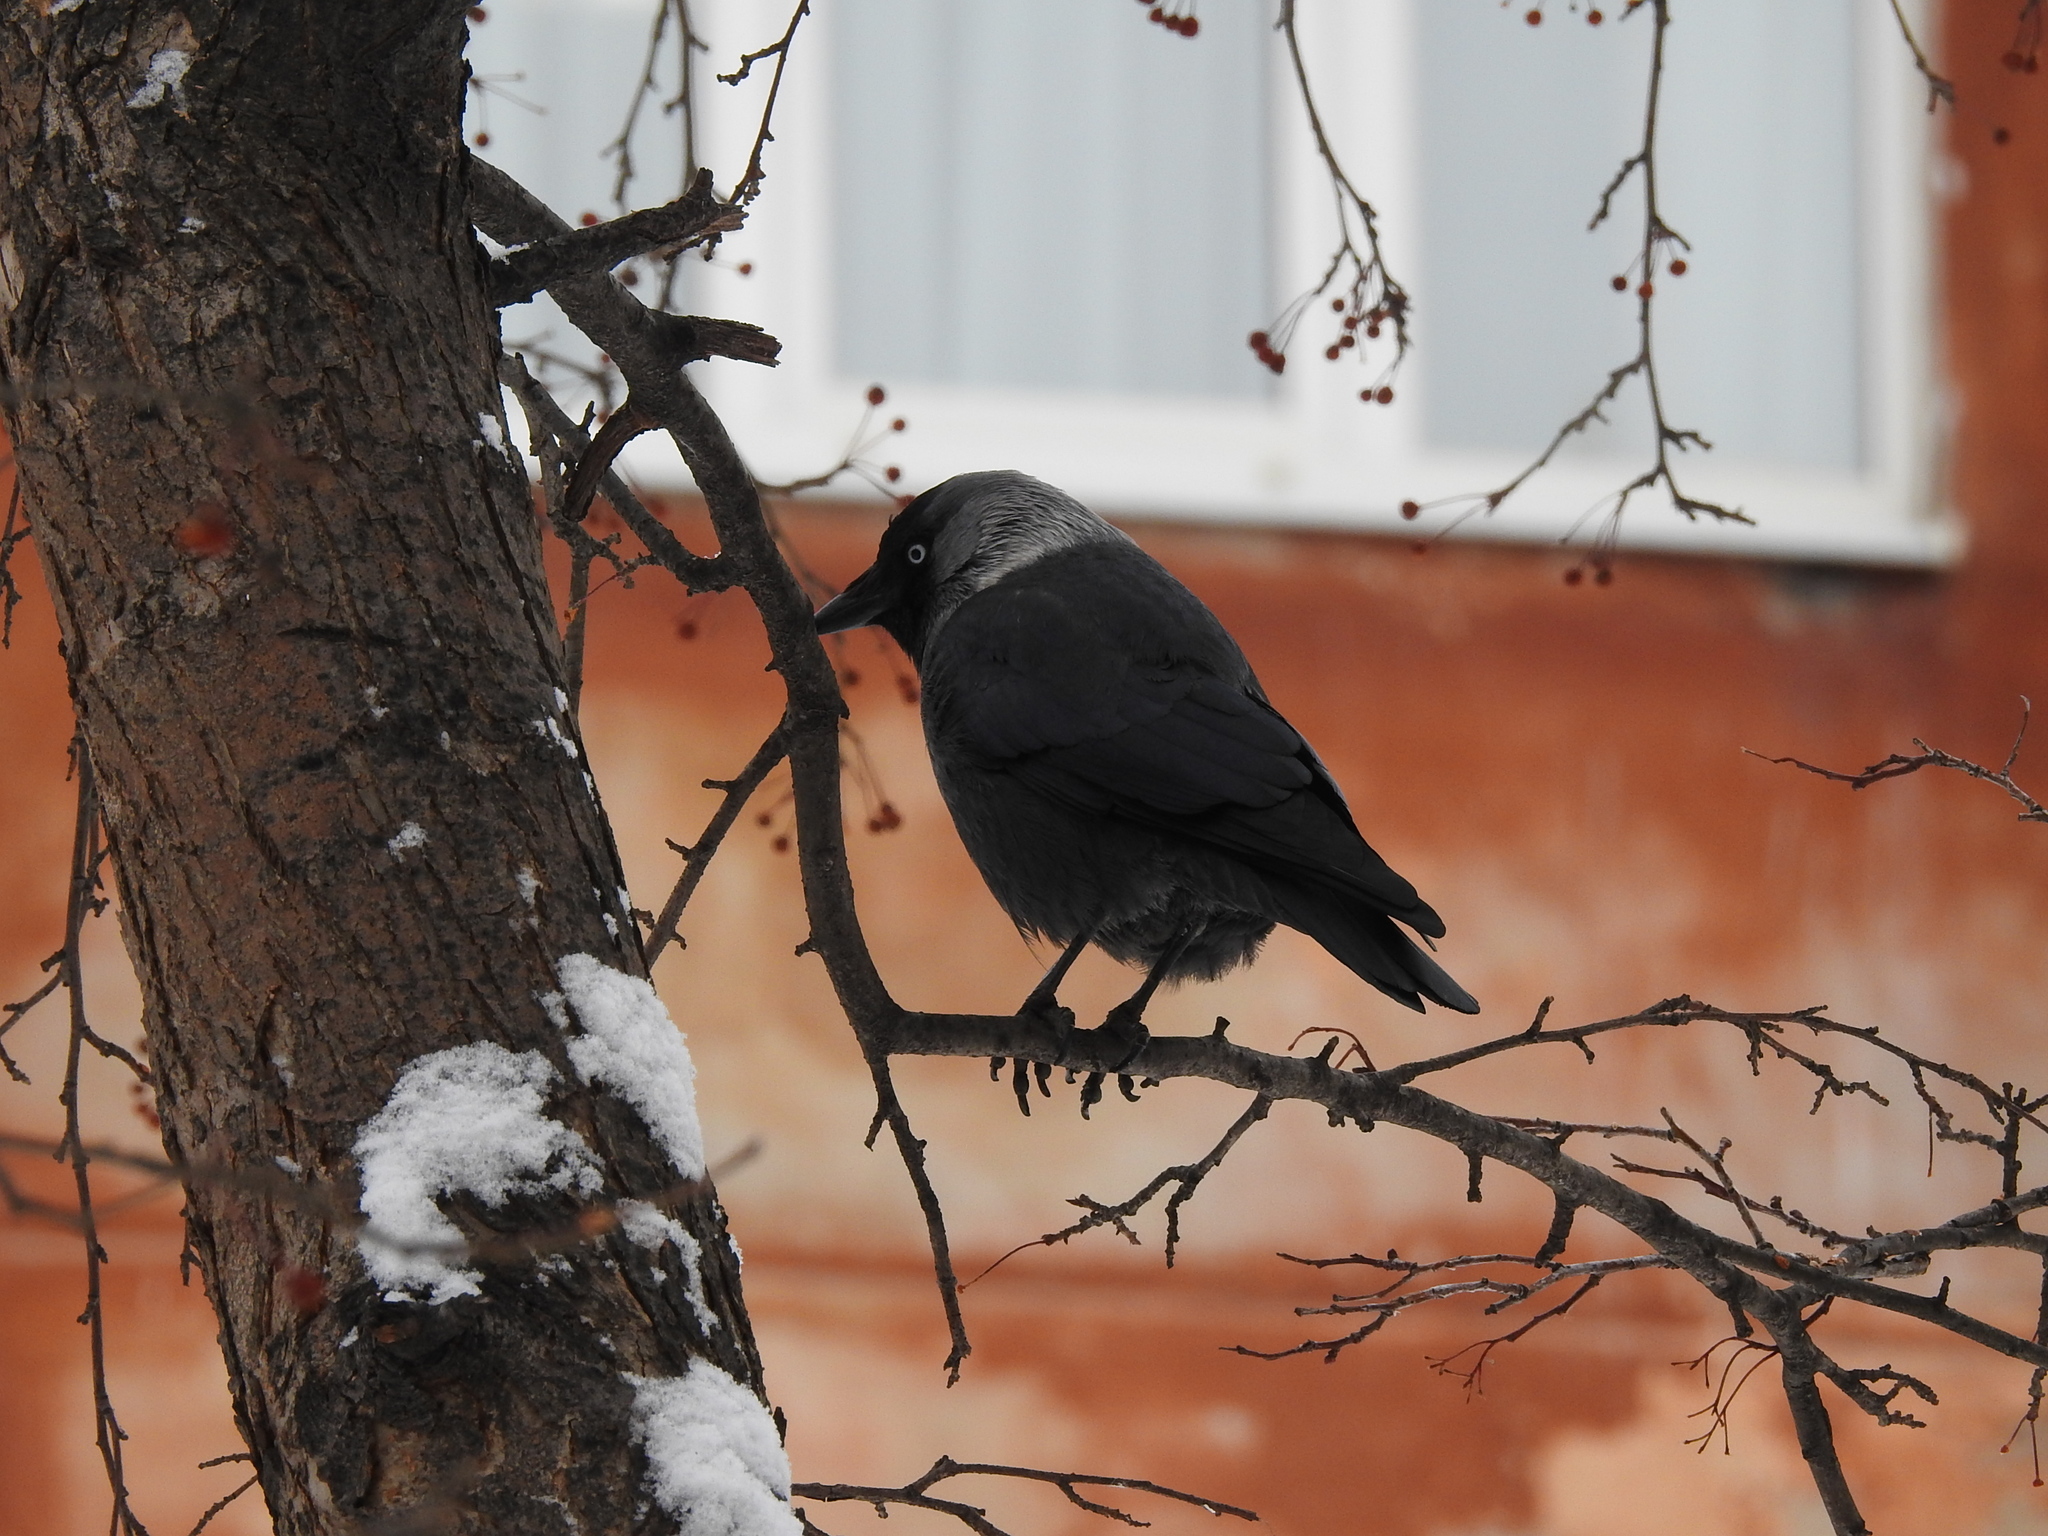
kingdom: Animalia
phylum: Chordata
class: Aves
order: Passeriformes
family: Corvidae
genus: Coloeus
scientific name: Coloeus monedula
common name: Western jackdaw
